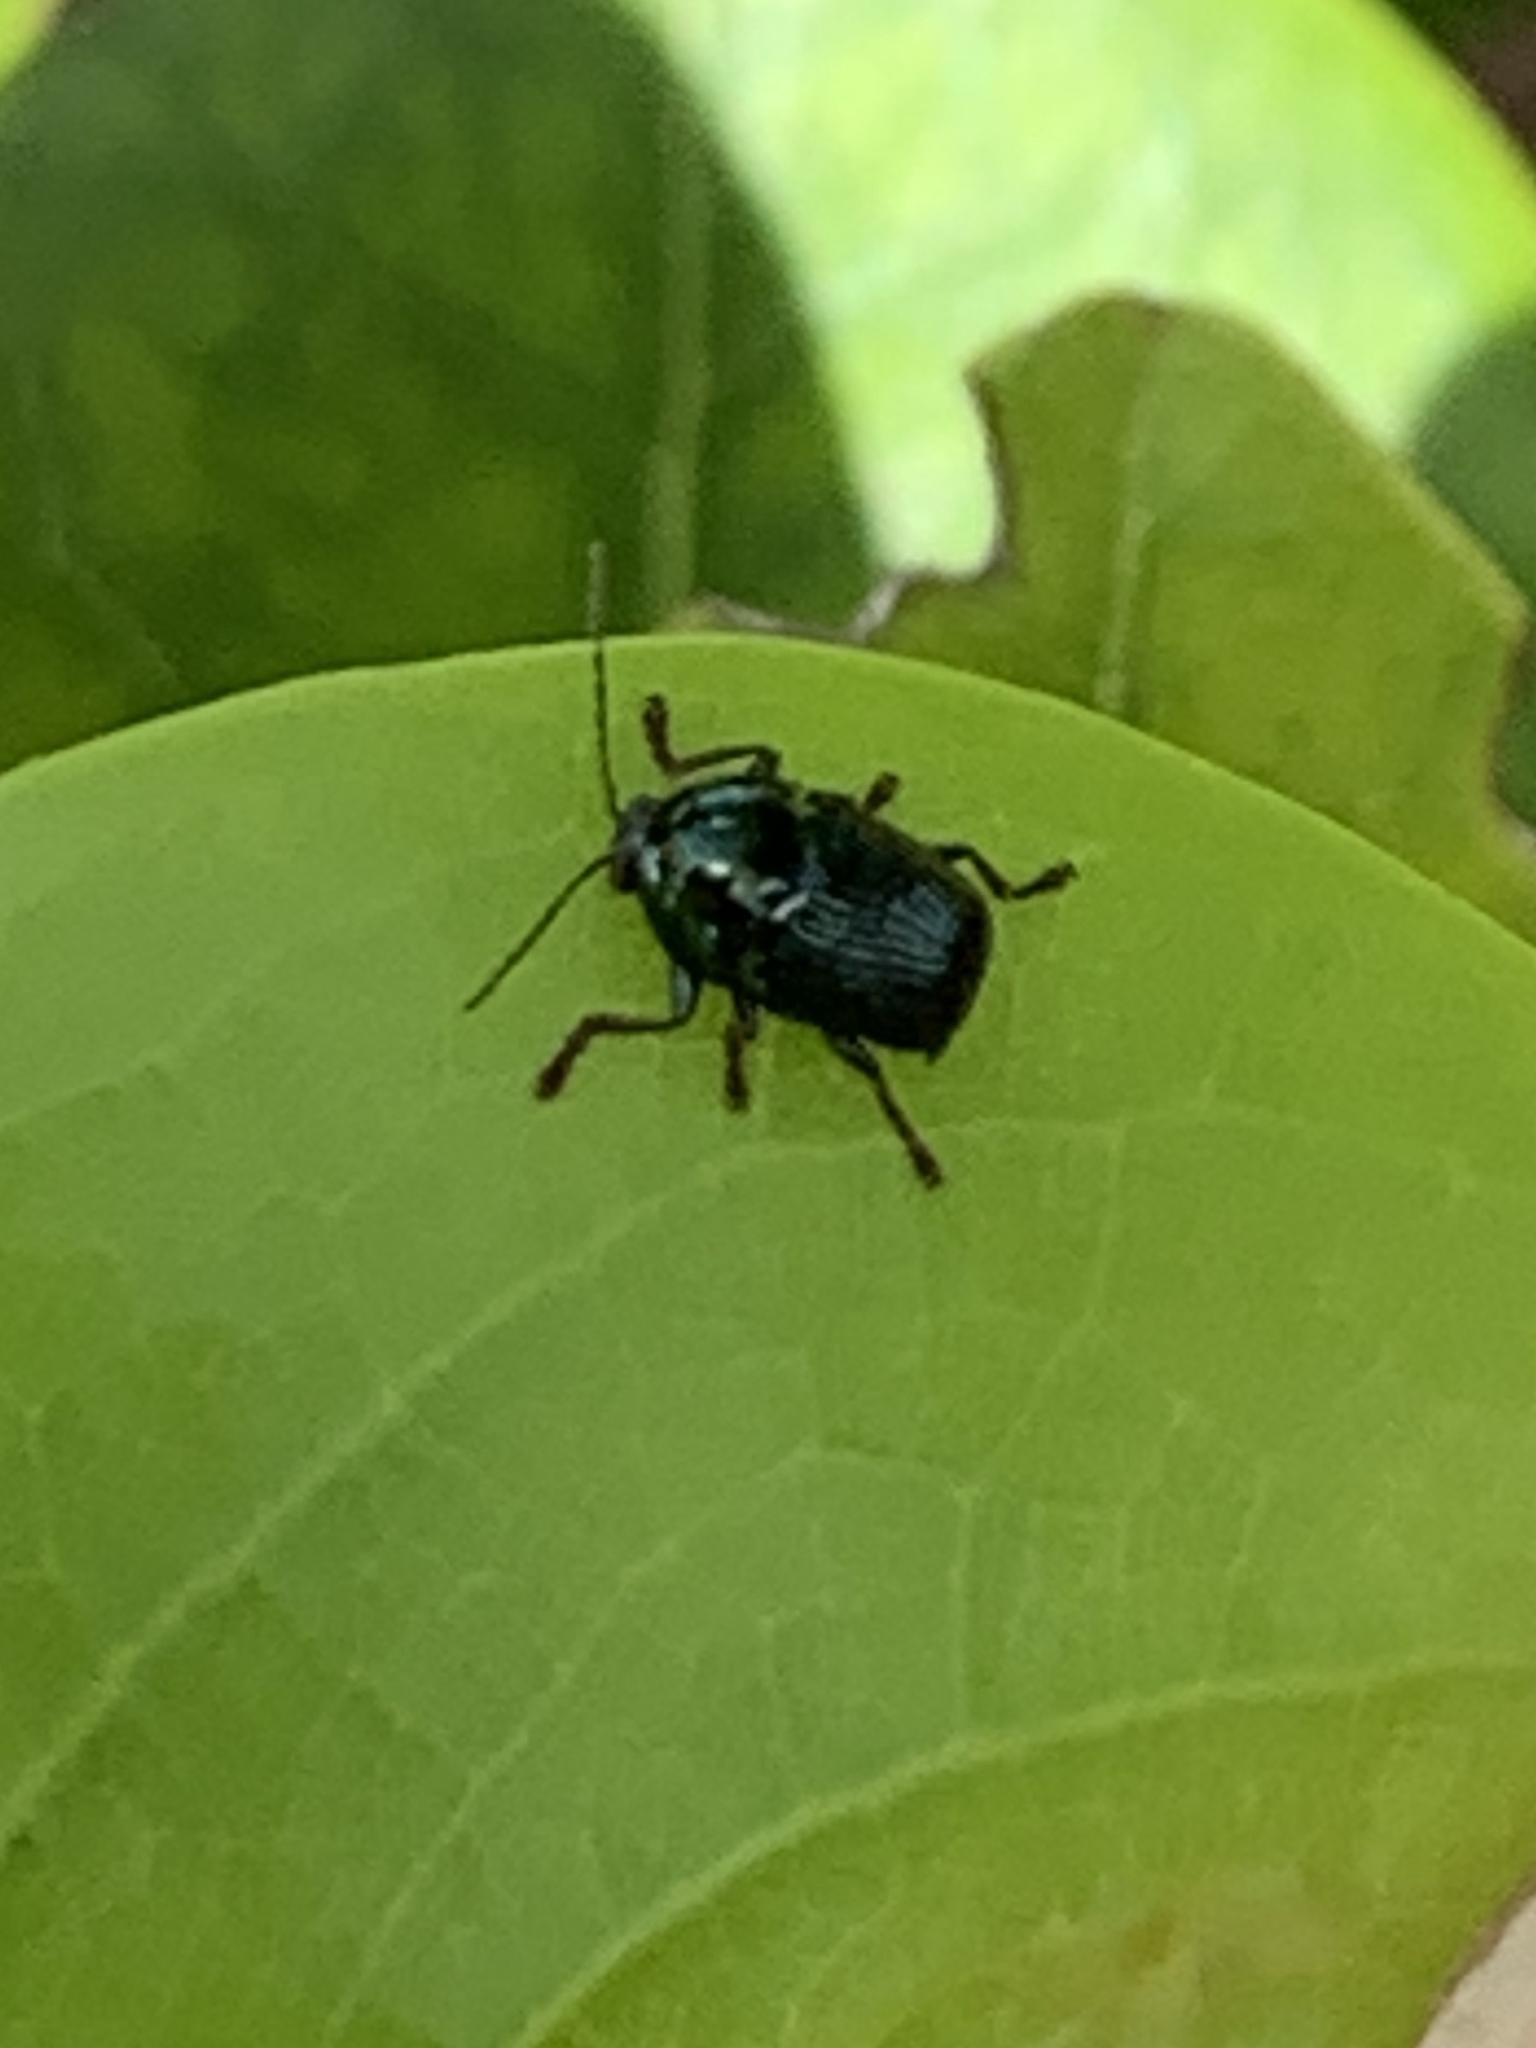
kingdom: Animalia
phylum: Arthropoda
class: Insecta
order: Coleoptera
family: Chrysomelidae
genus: Cryptocephalus
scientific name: Cryptocephalus nigrocinctus
